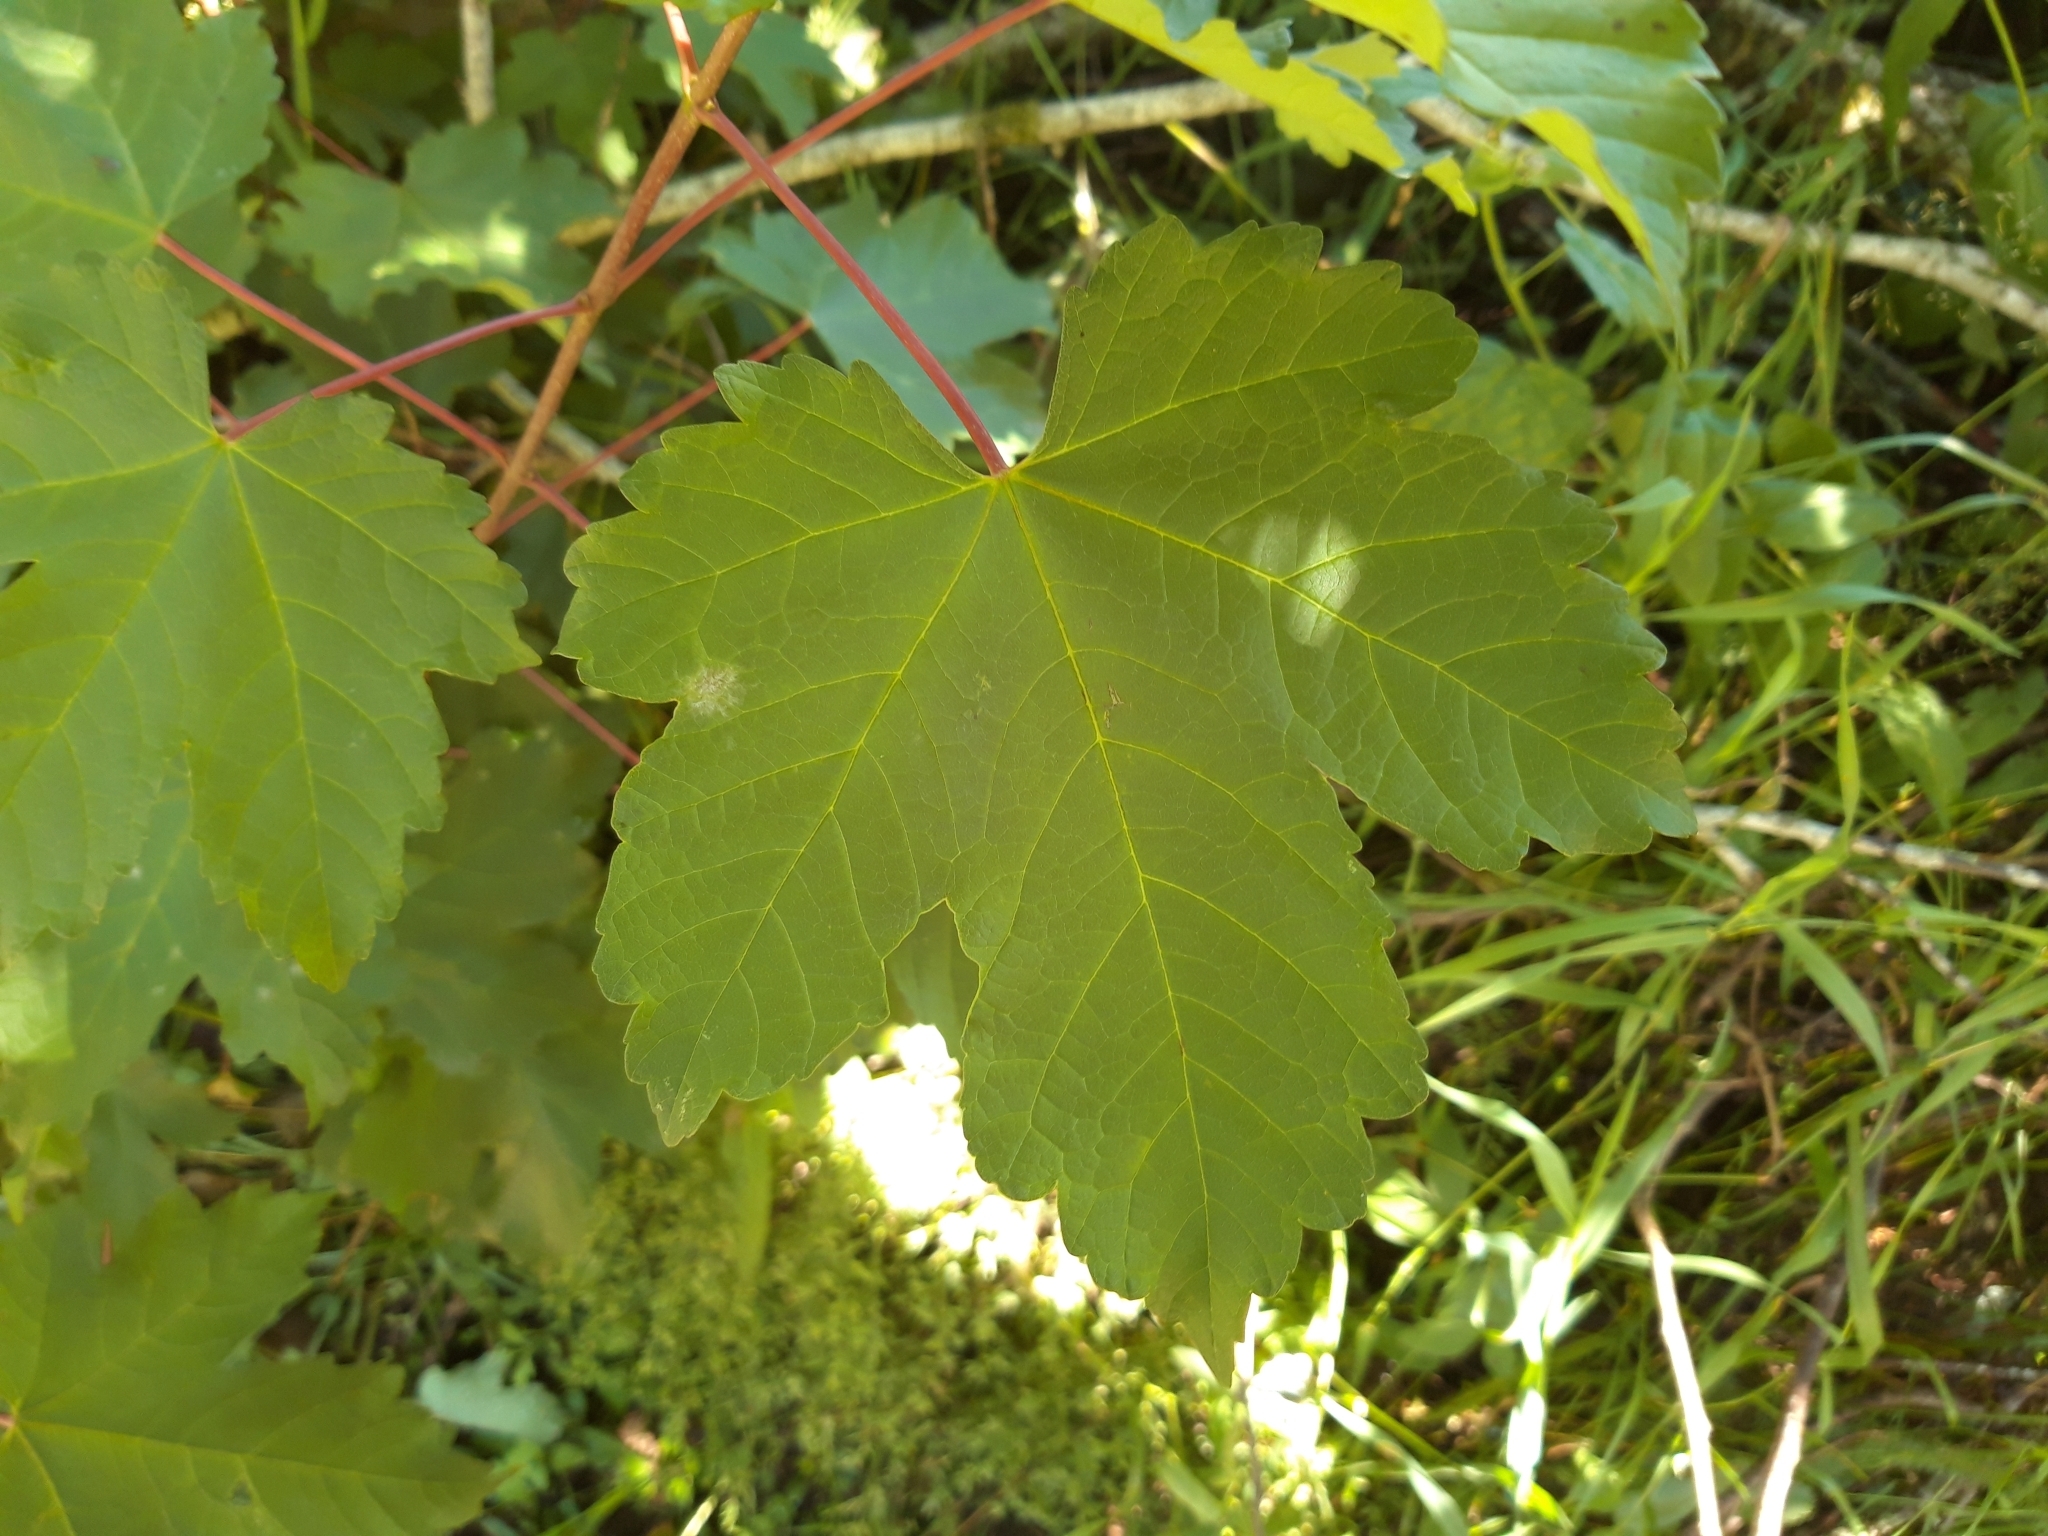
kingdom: Plantae
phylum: Tracheophyta
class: Magnoliopsida
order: Sapindales
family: Sapindaceae
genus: Acer
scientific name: Acer pseudoplatanus
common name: Sycamore
